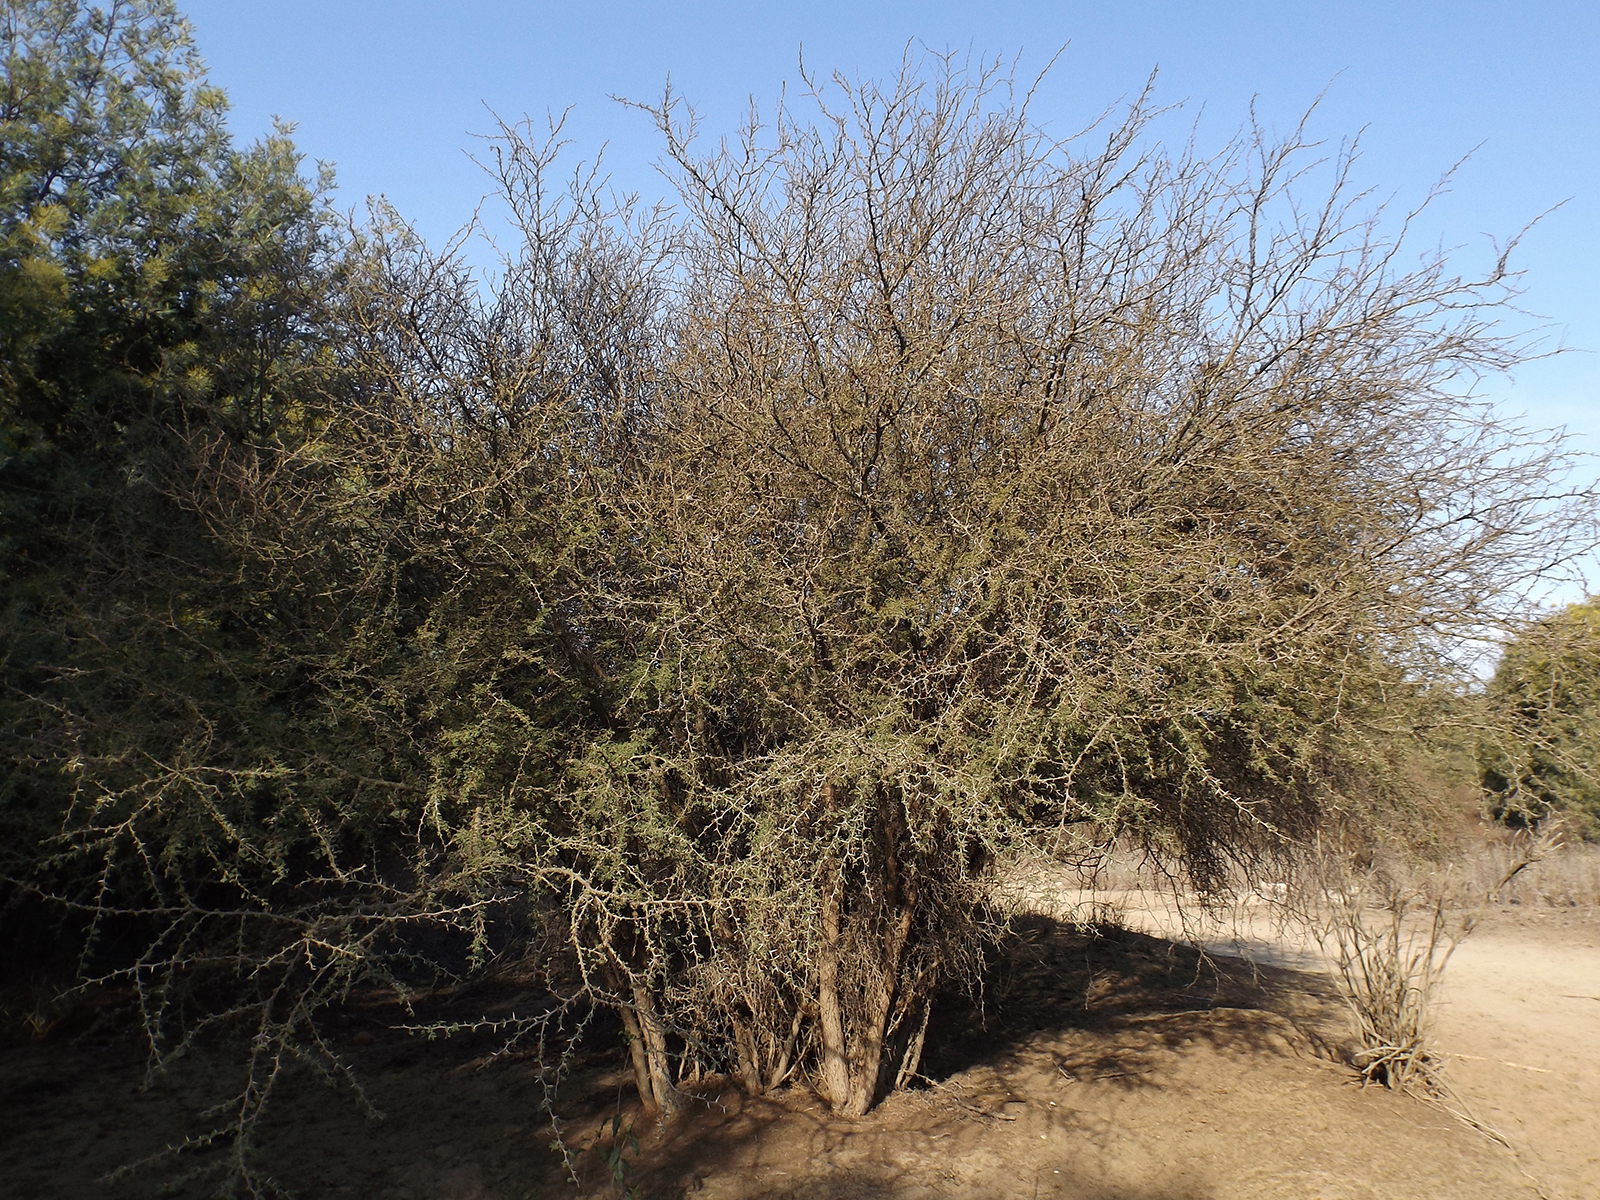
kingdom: Plantae
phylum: Tracheophyta
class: Magnoliopsida
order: Fabales
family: Fabaceae
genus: Vachellia
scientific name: Vachellia caven
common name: Roman cassie
